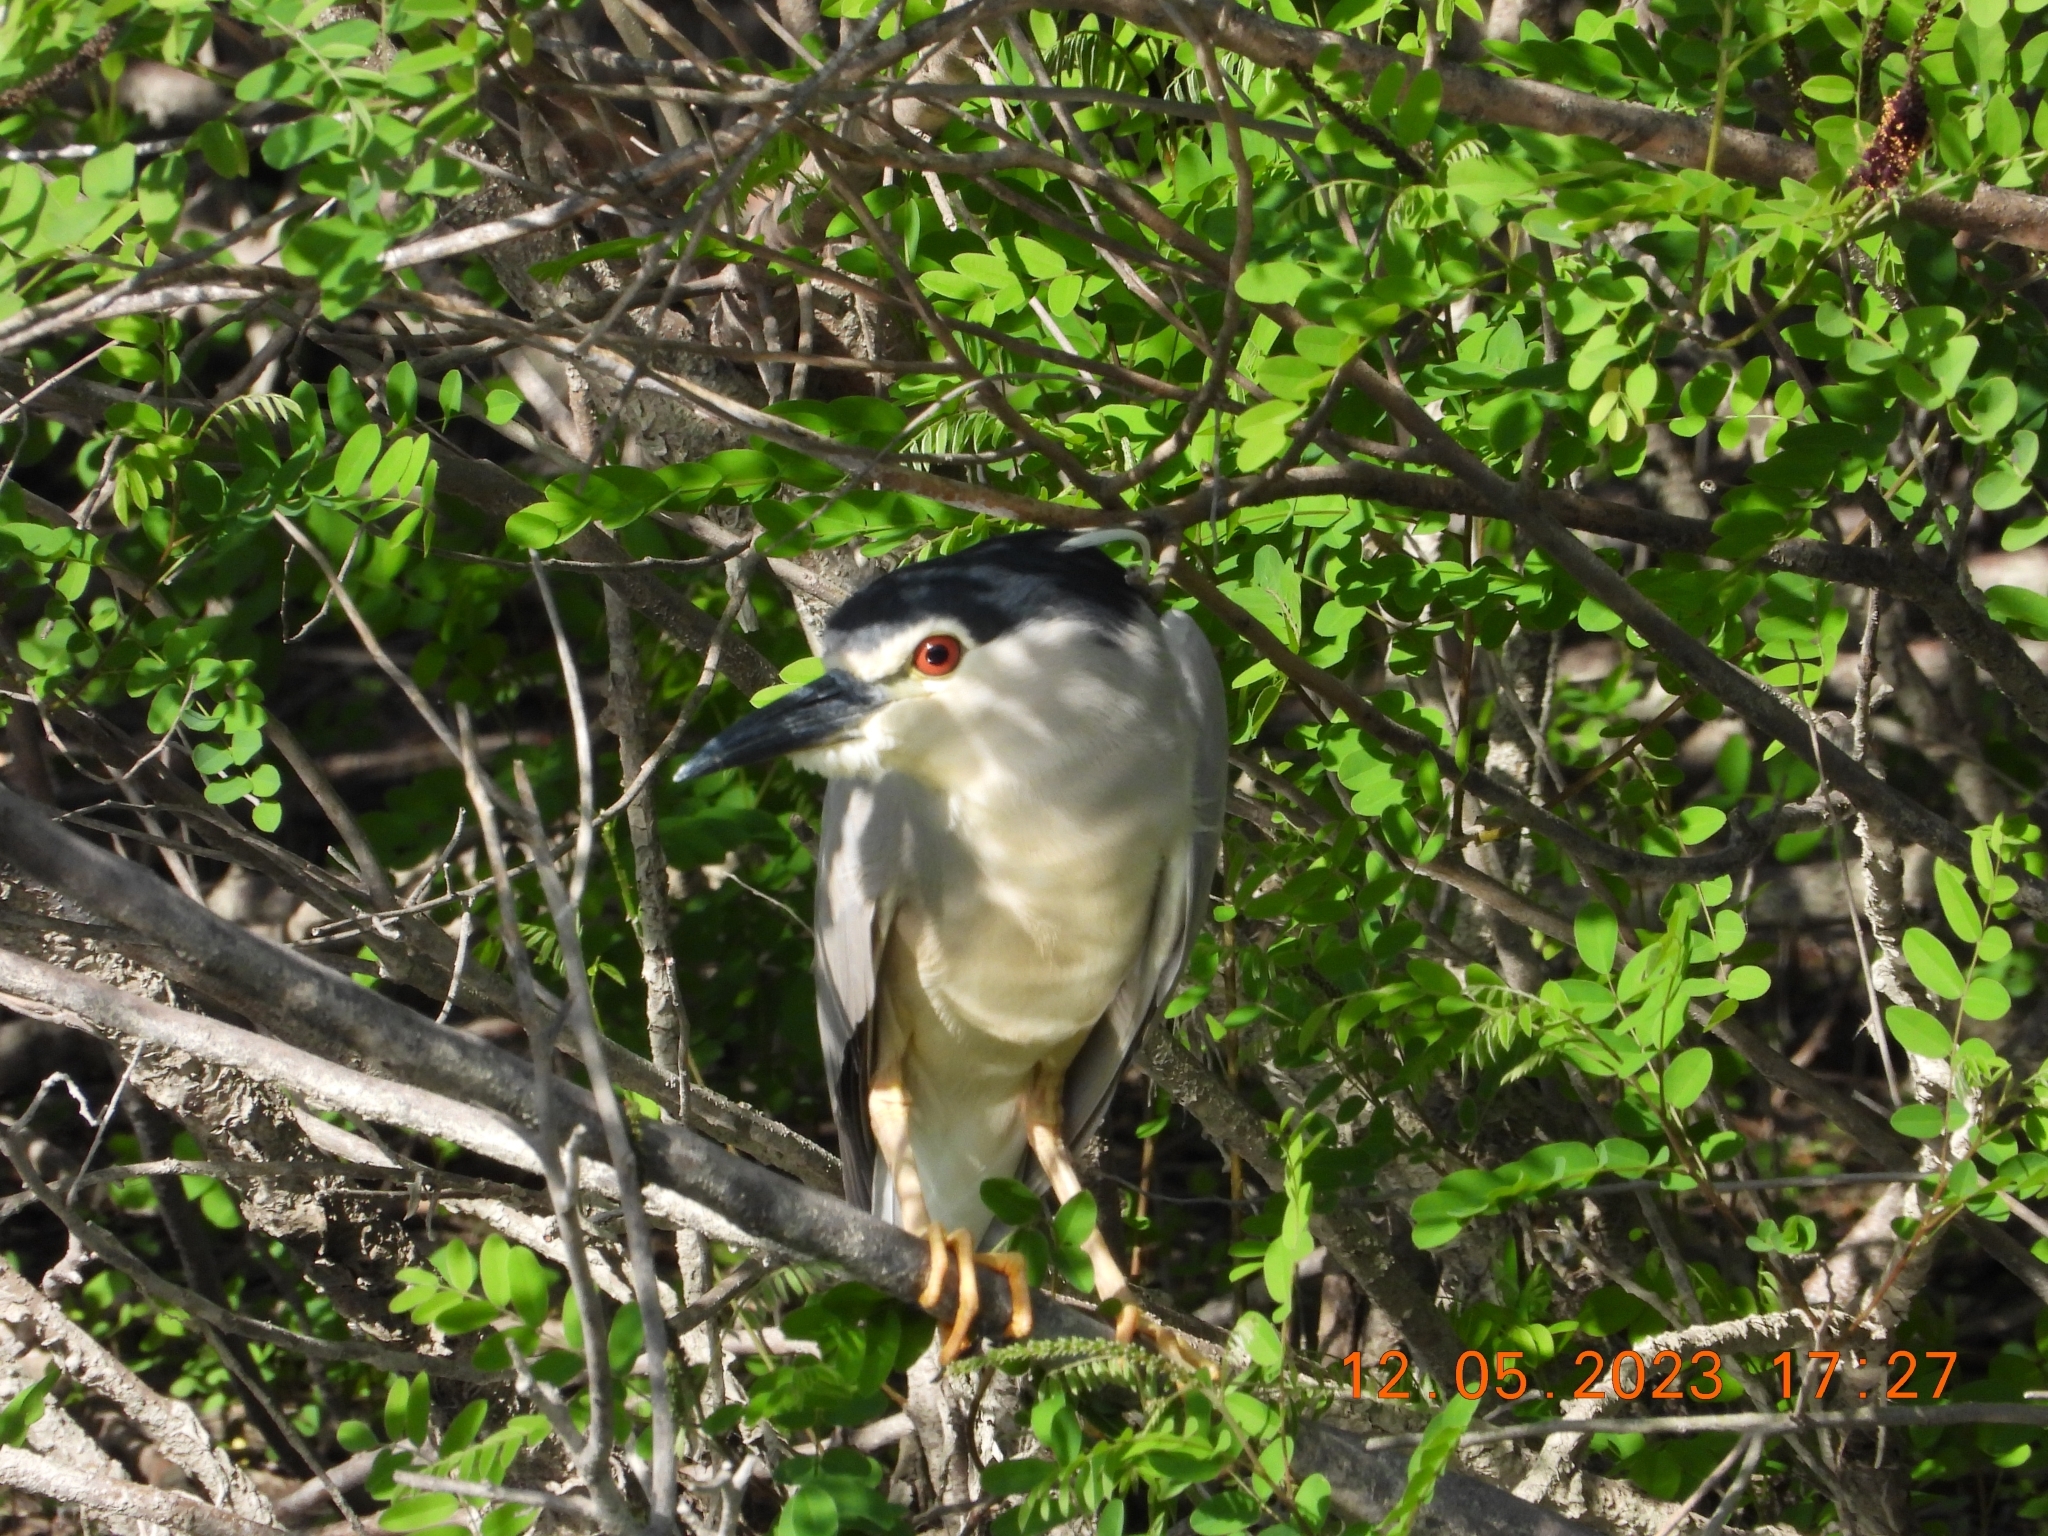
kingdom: Animalia
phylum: Chordata
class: Aves
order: Pelecaniformes
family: Ardeidae
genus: Nycticorax
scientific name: Nycticorax nycticorax
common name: Black-crowned night heron
